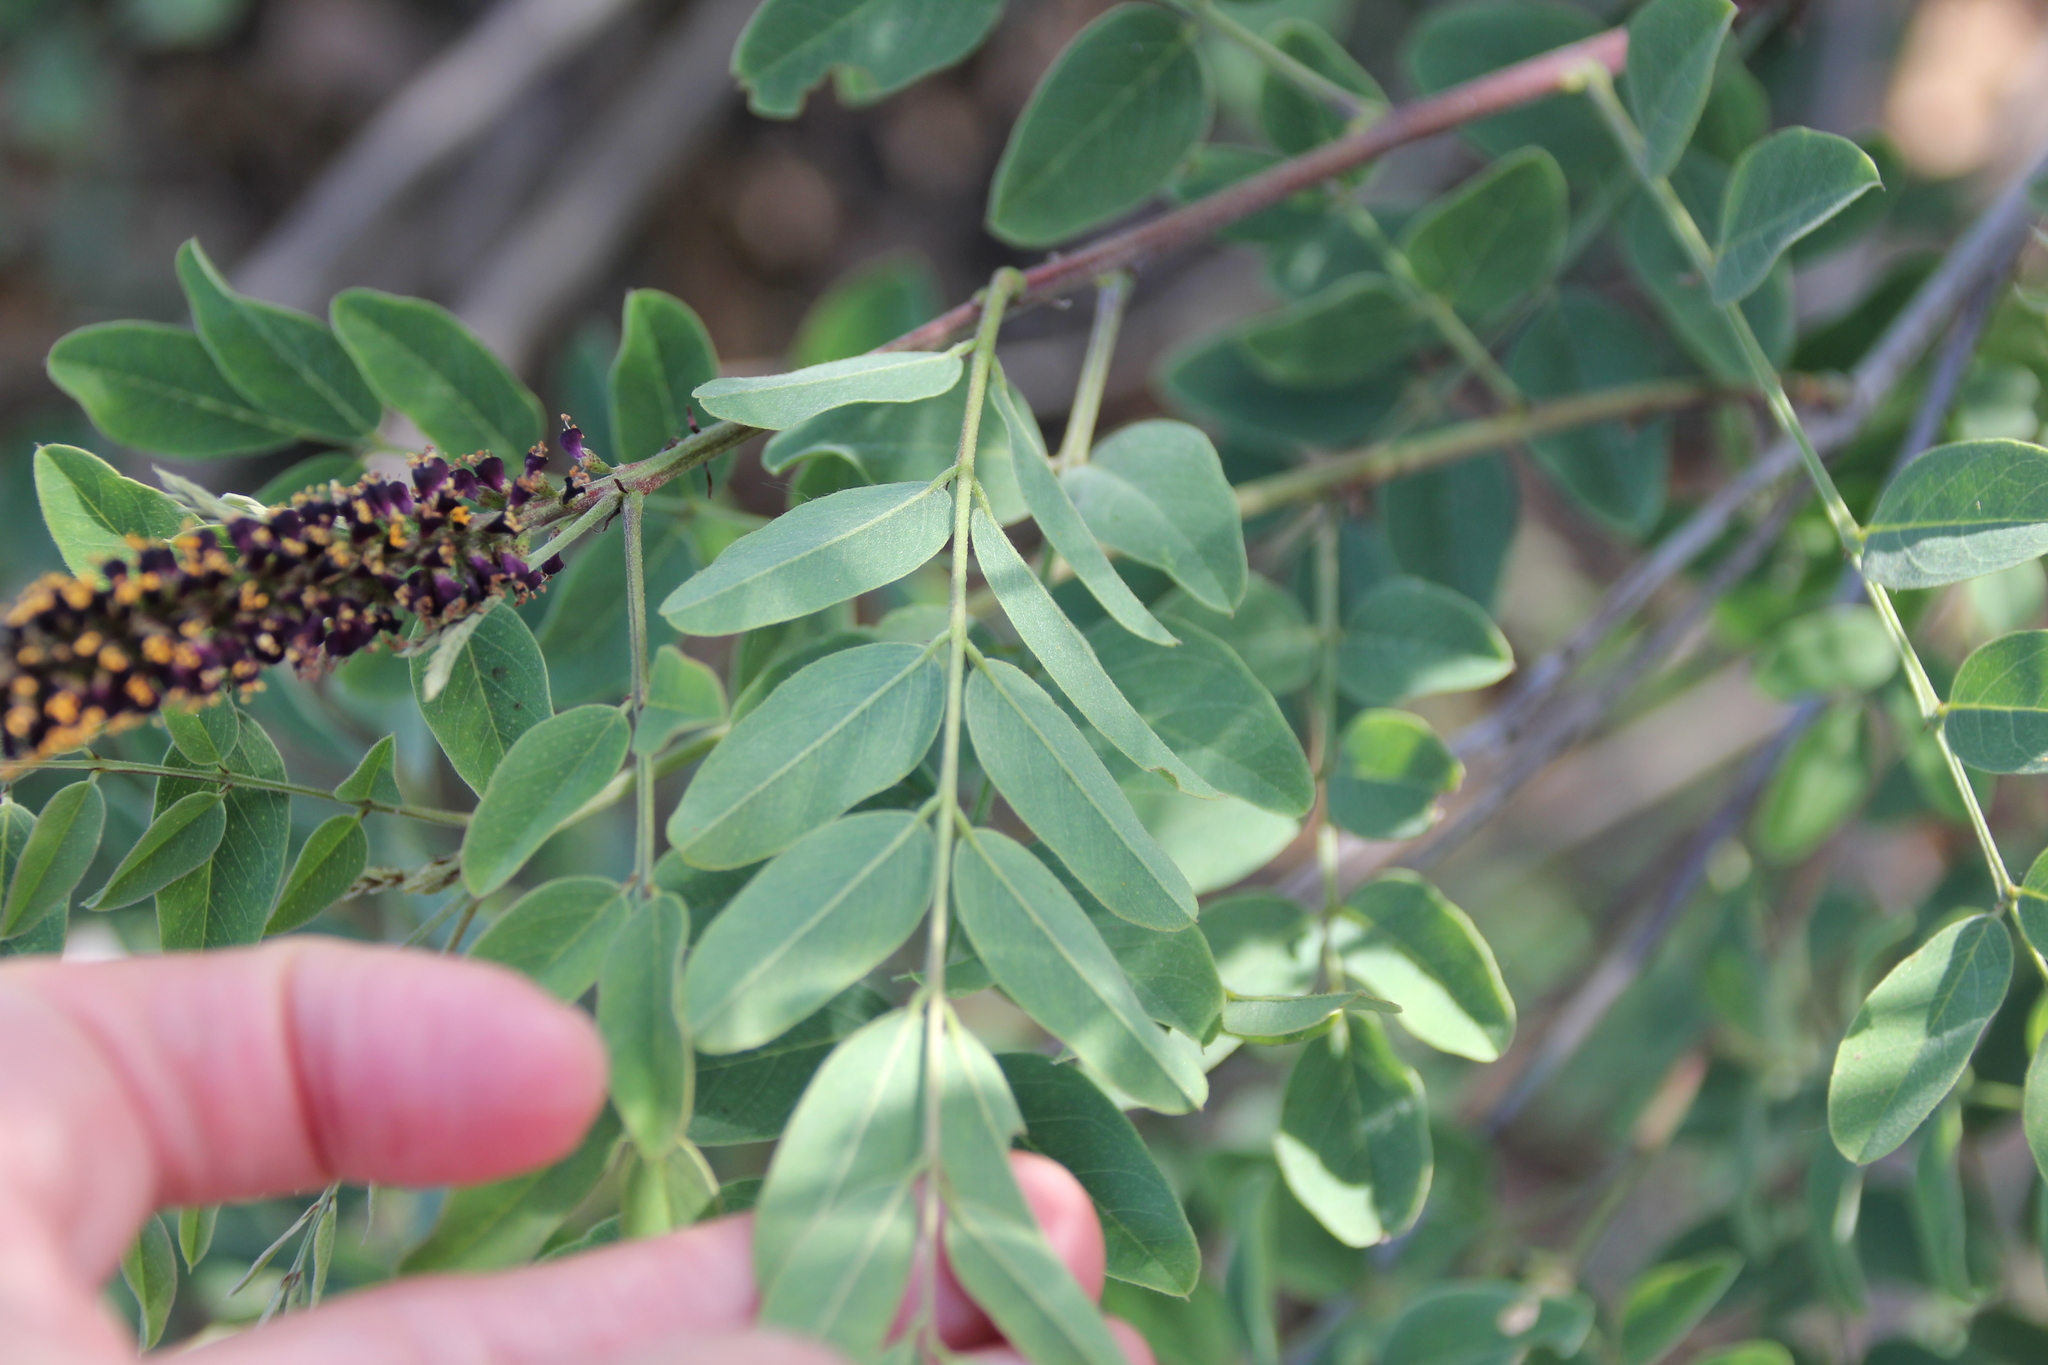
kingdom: Plantae
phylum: Tracheophyta
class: Magnoliopsida
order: Fabales
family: Fabaceae
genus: Amorpha
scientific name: Amorpha fruticosa
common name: False indigo
